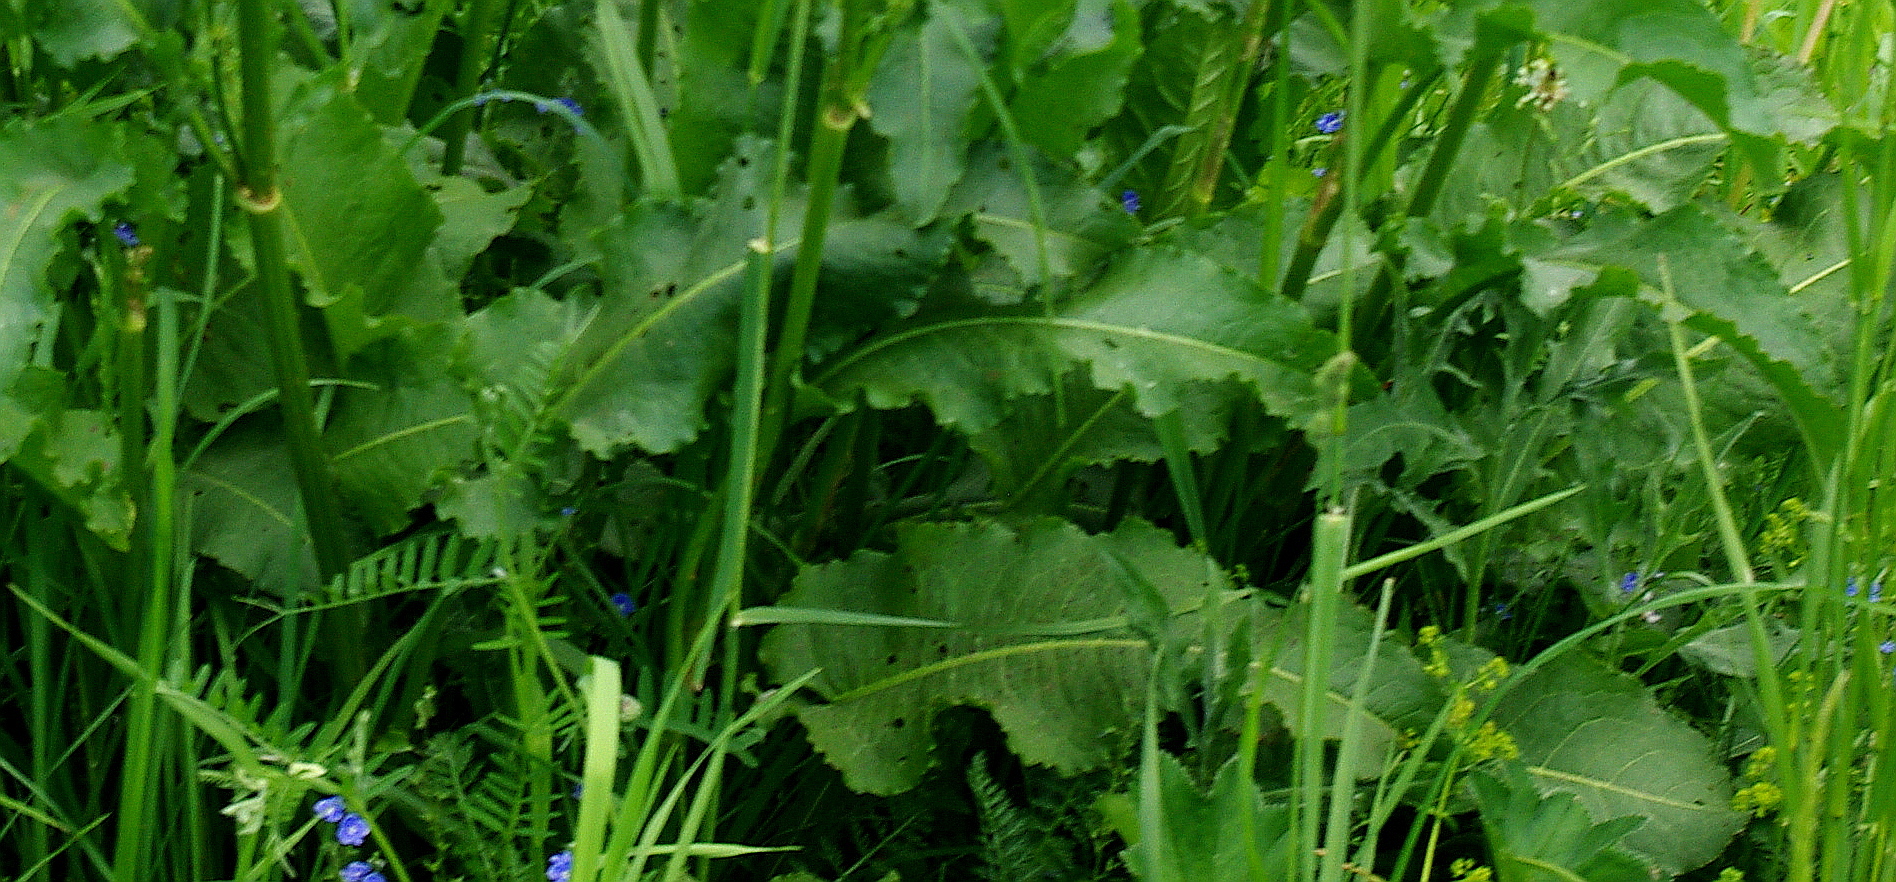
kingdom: Plantae
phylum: Tracheophyta
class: Magnoliopsida
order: Caryophyllales
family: Polygonaceae
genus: Rumex
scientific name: Rumex confertus
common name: Russian dock
